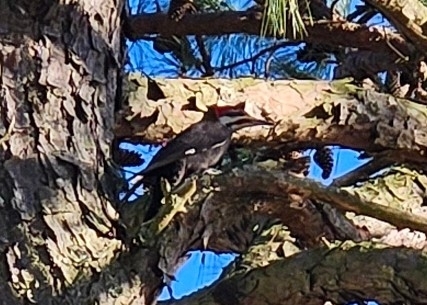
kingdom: Animalia
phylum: Chordata
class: Aves
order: Piciformes
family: Picidae
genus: Dryocopus
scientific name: Dryocopus pileatus
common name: Pileated woodpecker
